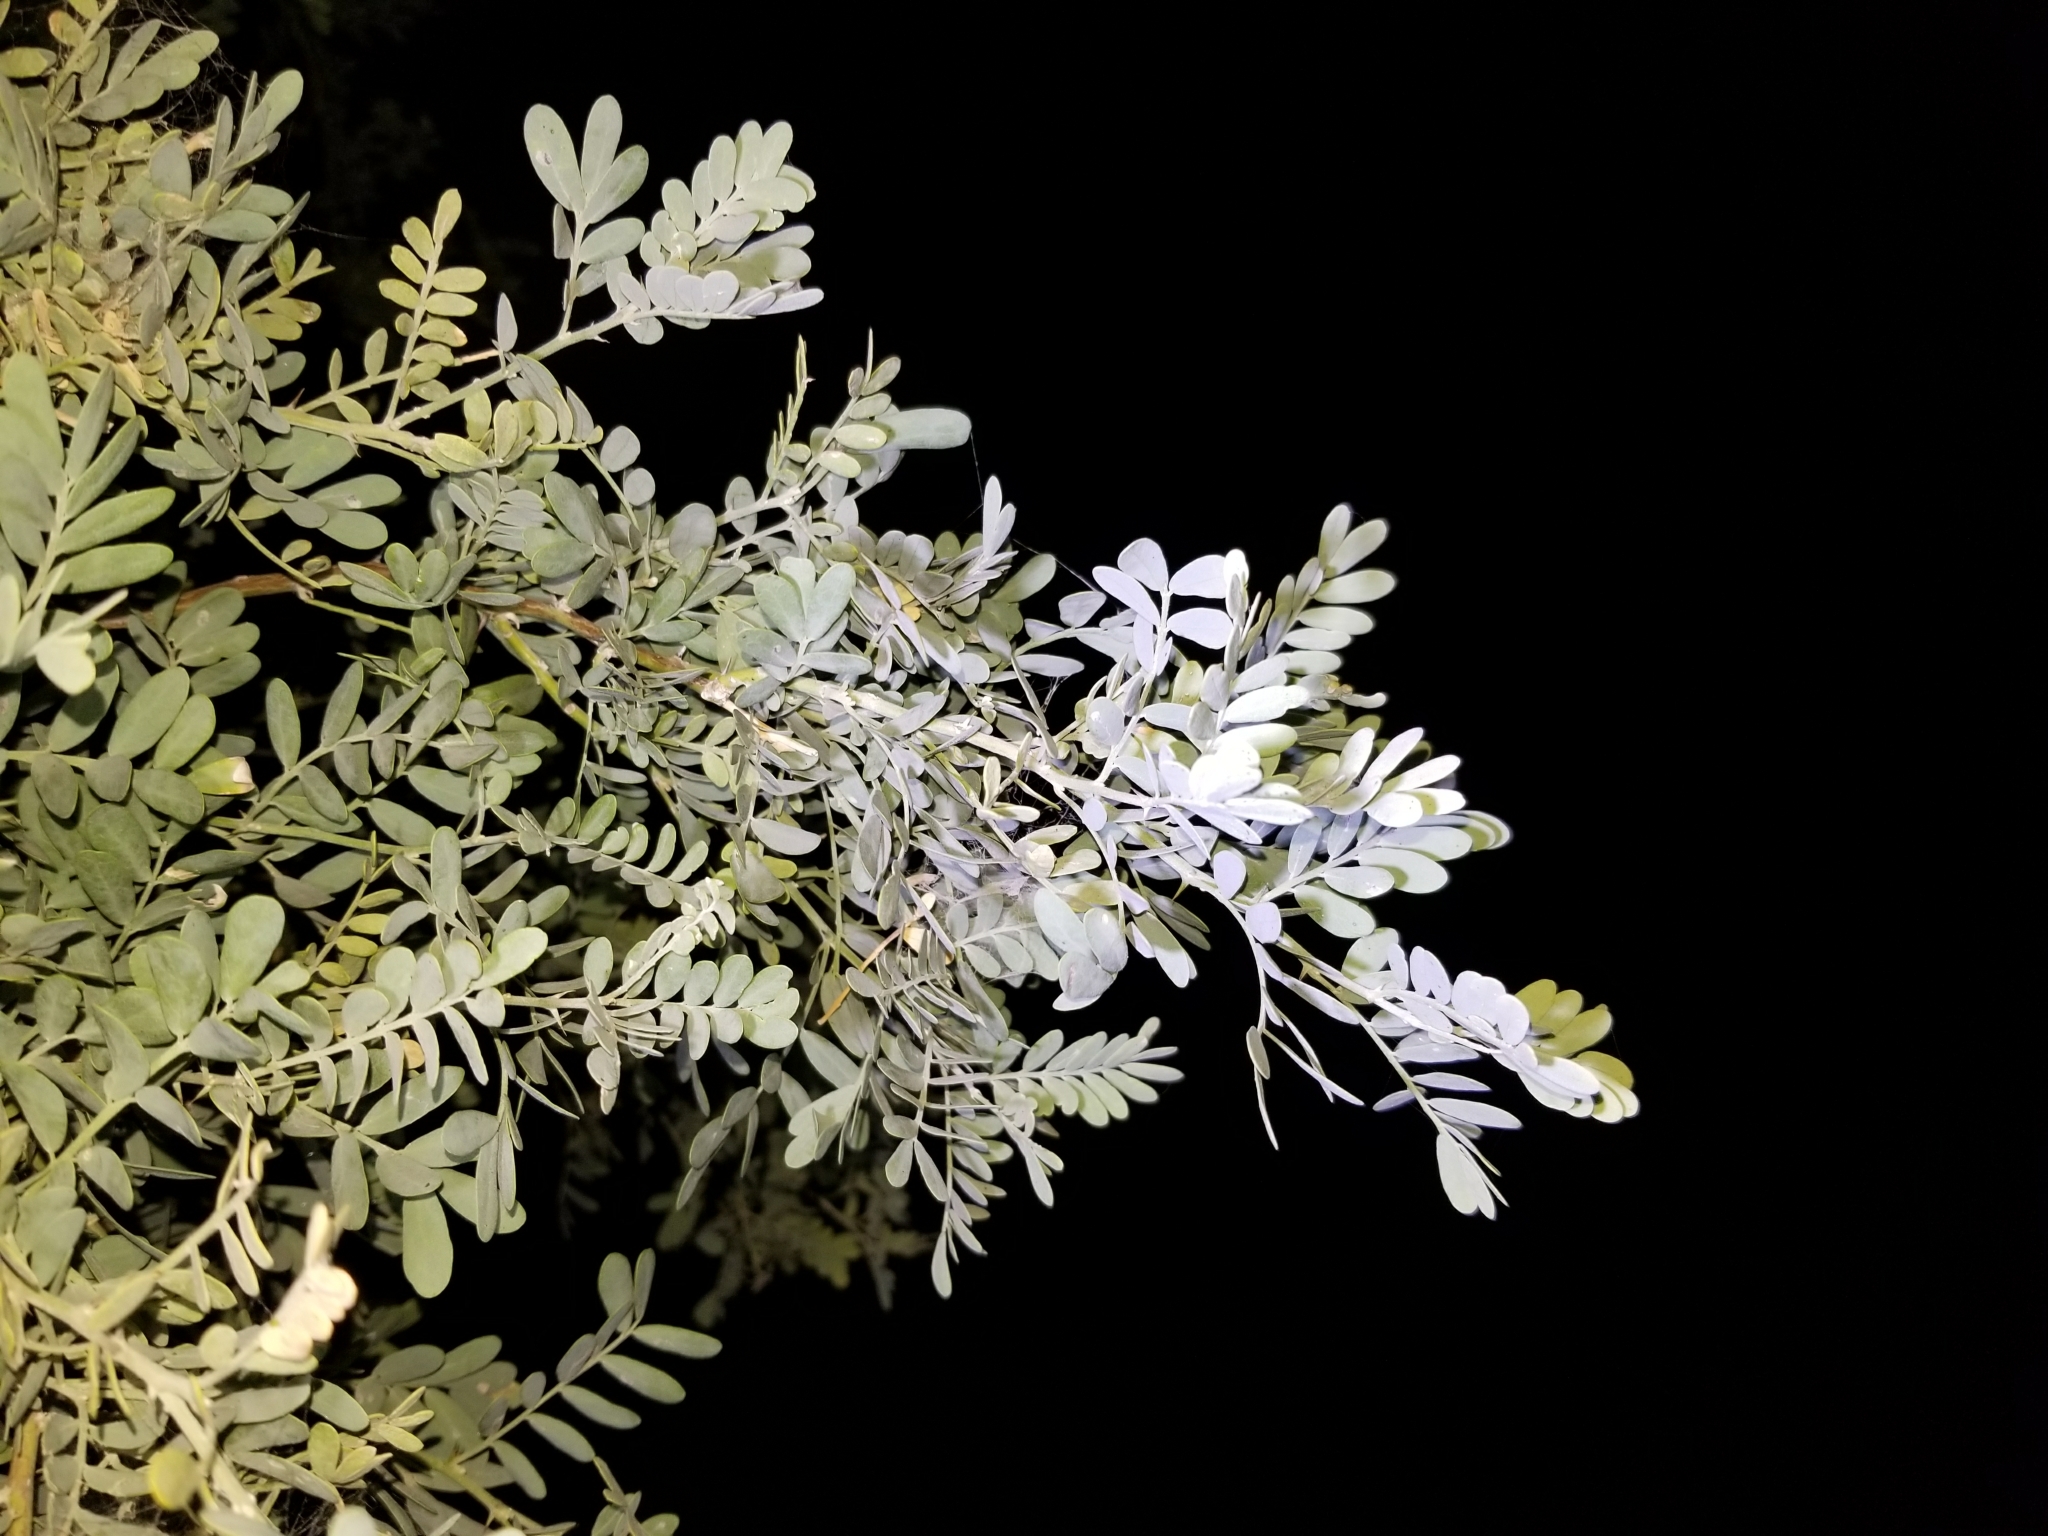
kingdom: Plantae
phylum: Tracheophyta
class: Magnoliopsida
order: Fabales
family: Fabaceae
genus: Olneya
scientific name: Olneya tesota
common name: Desert ironwood
